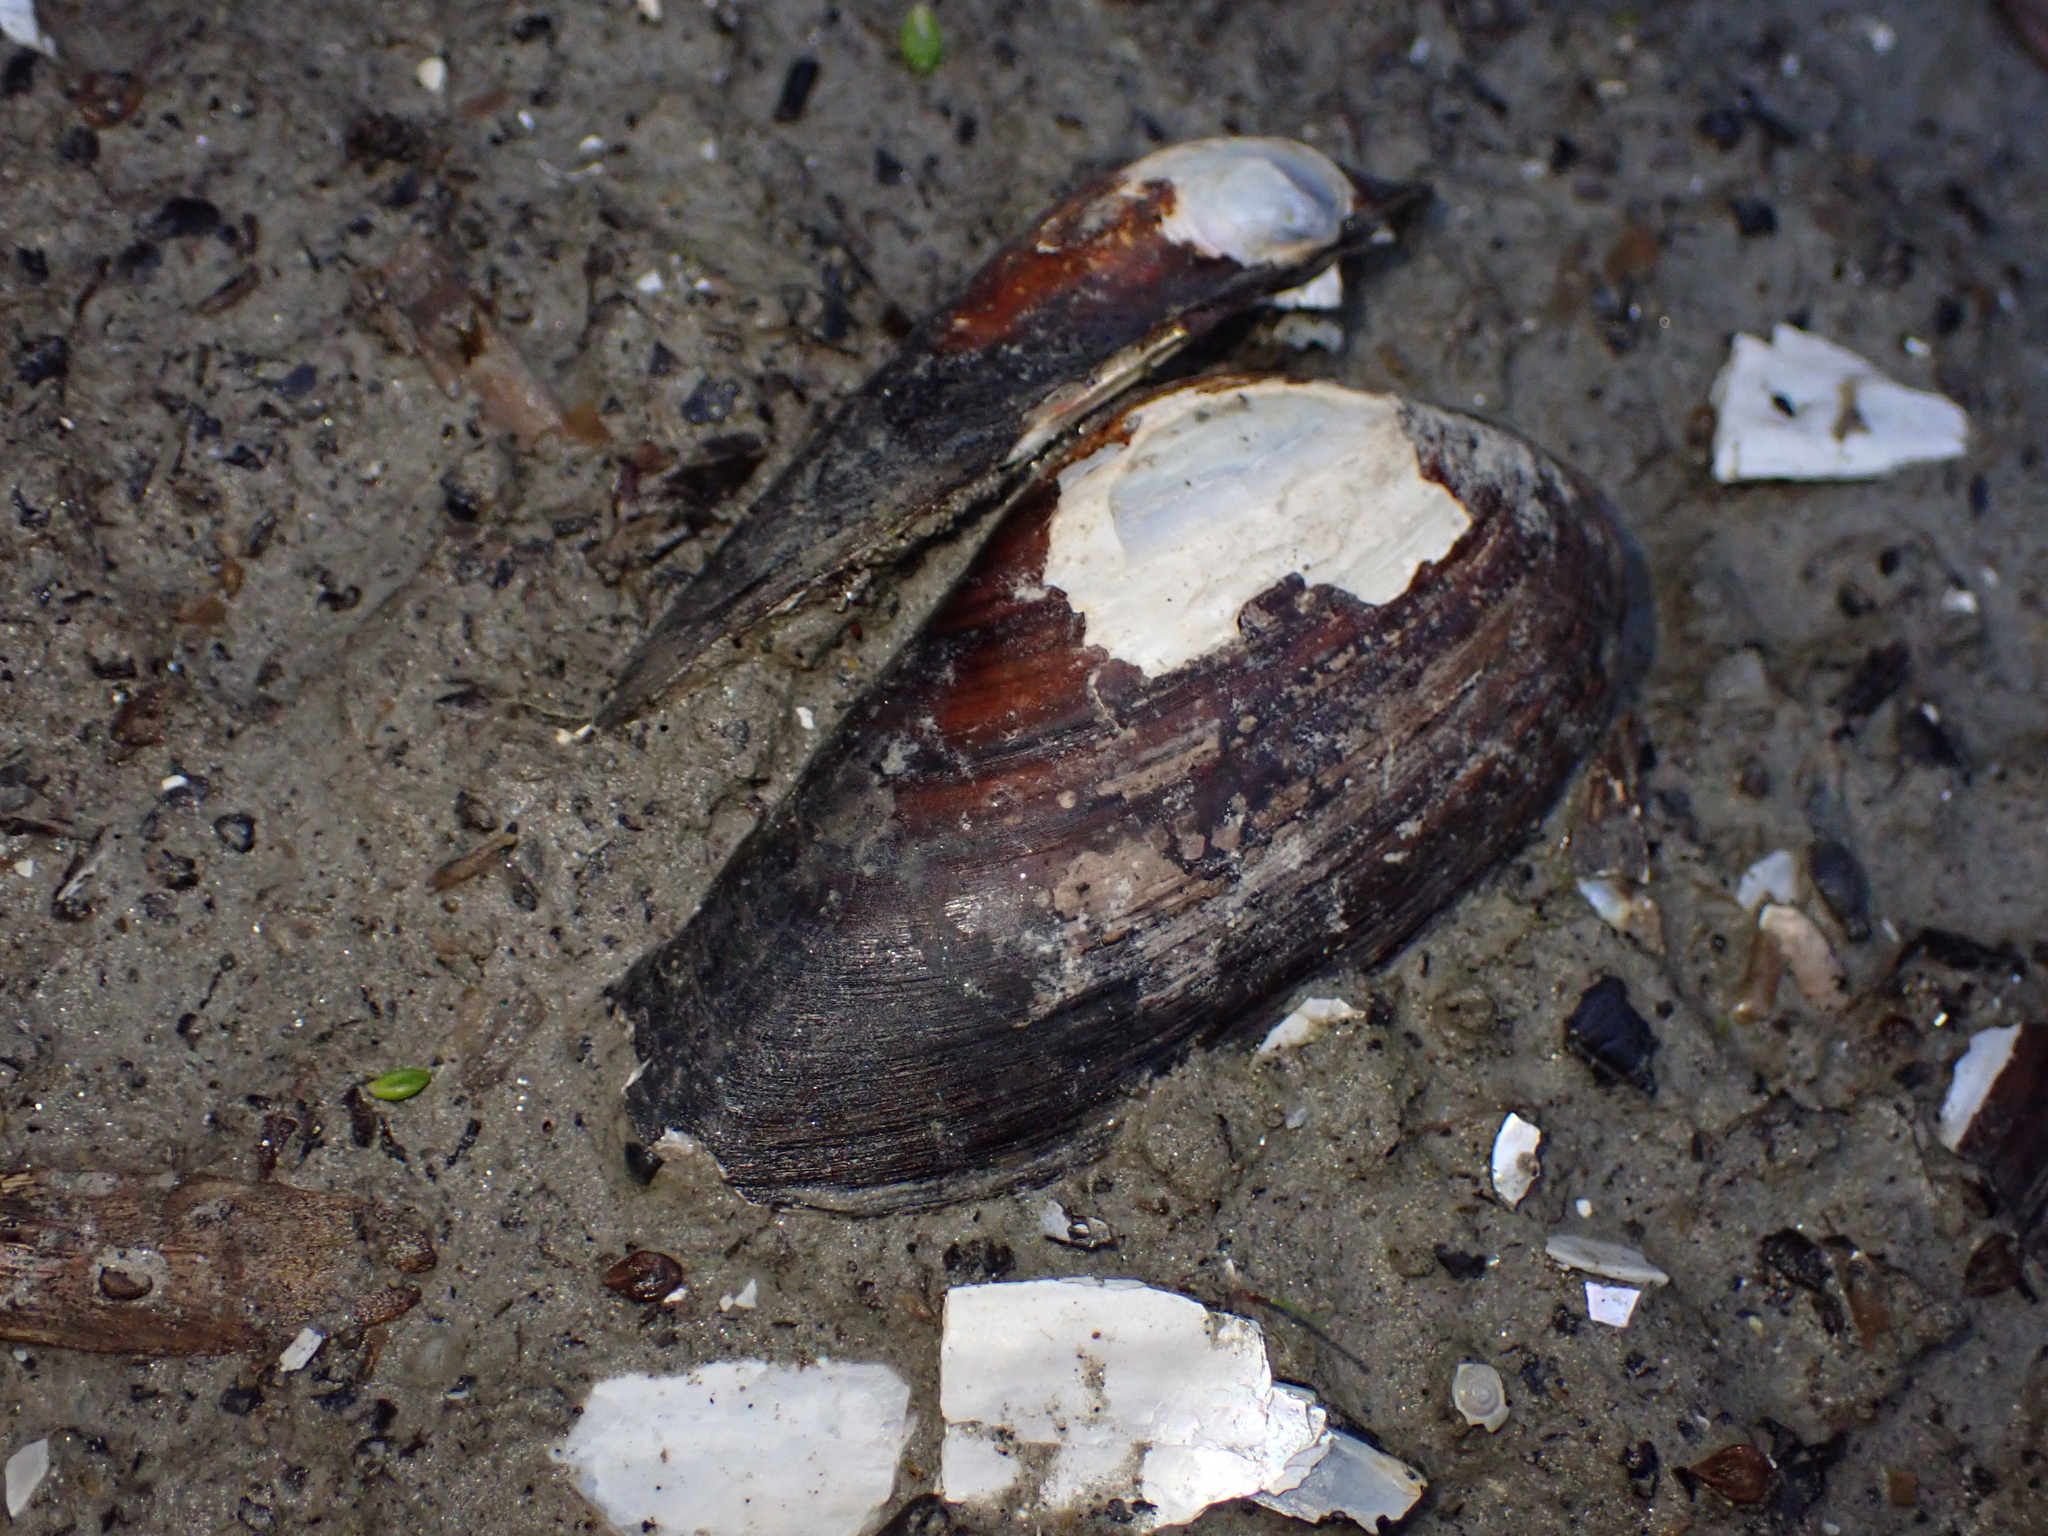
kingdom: Animalia
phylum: Mollusca
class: Bivalvia
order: Unionida
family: Unionidae
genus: Unio
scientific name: Unio pictorum
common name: Painter's mussel
